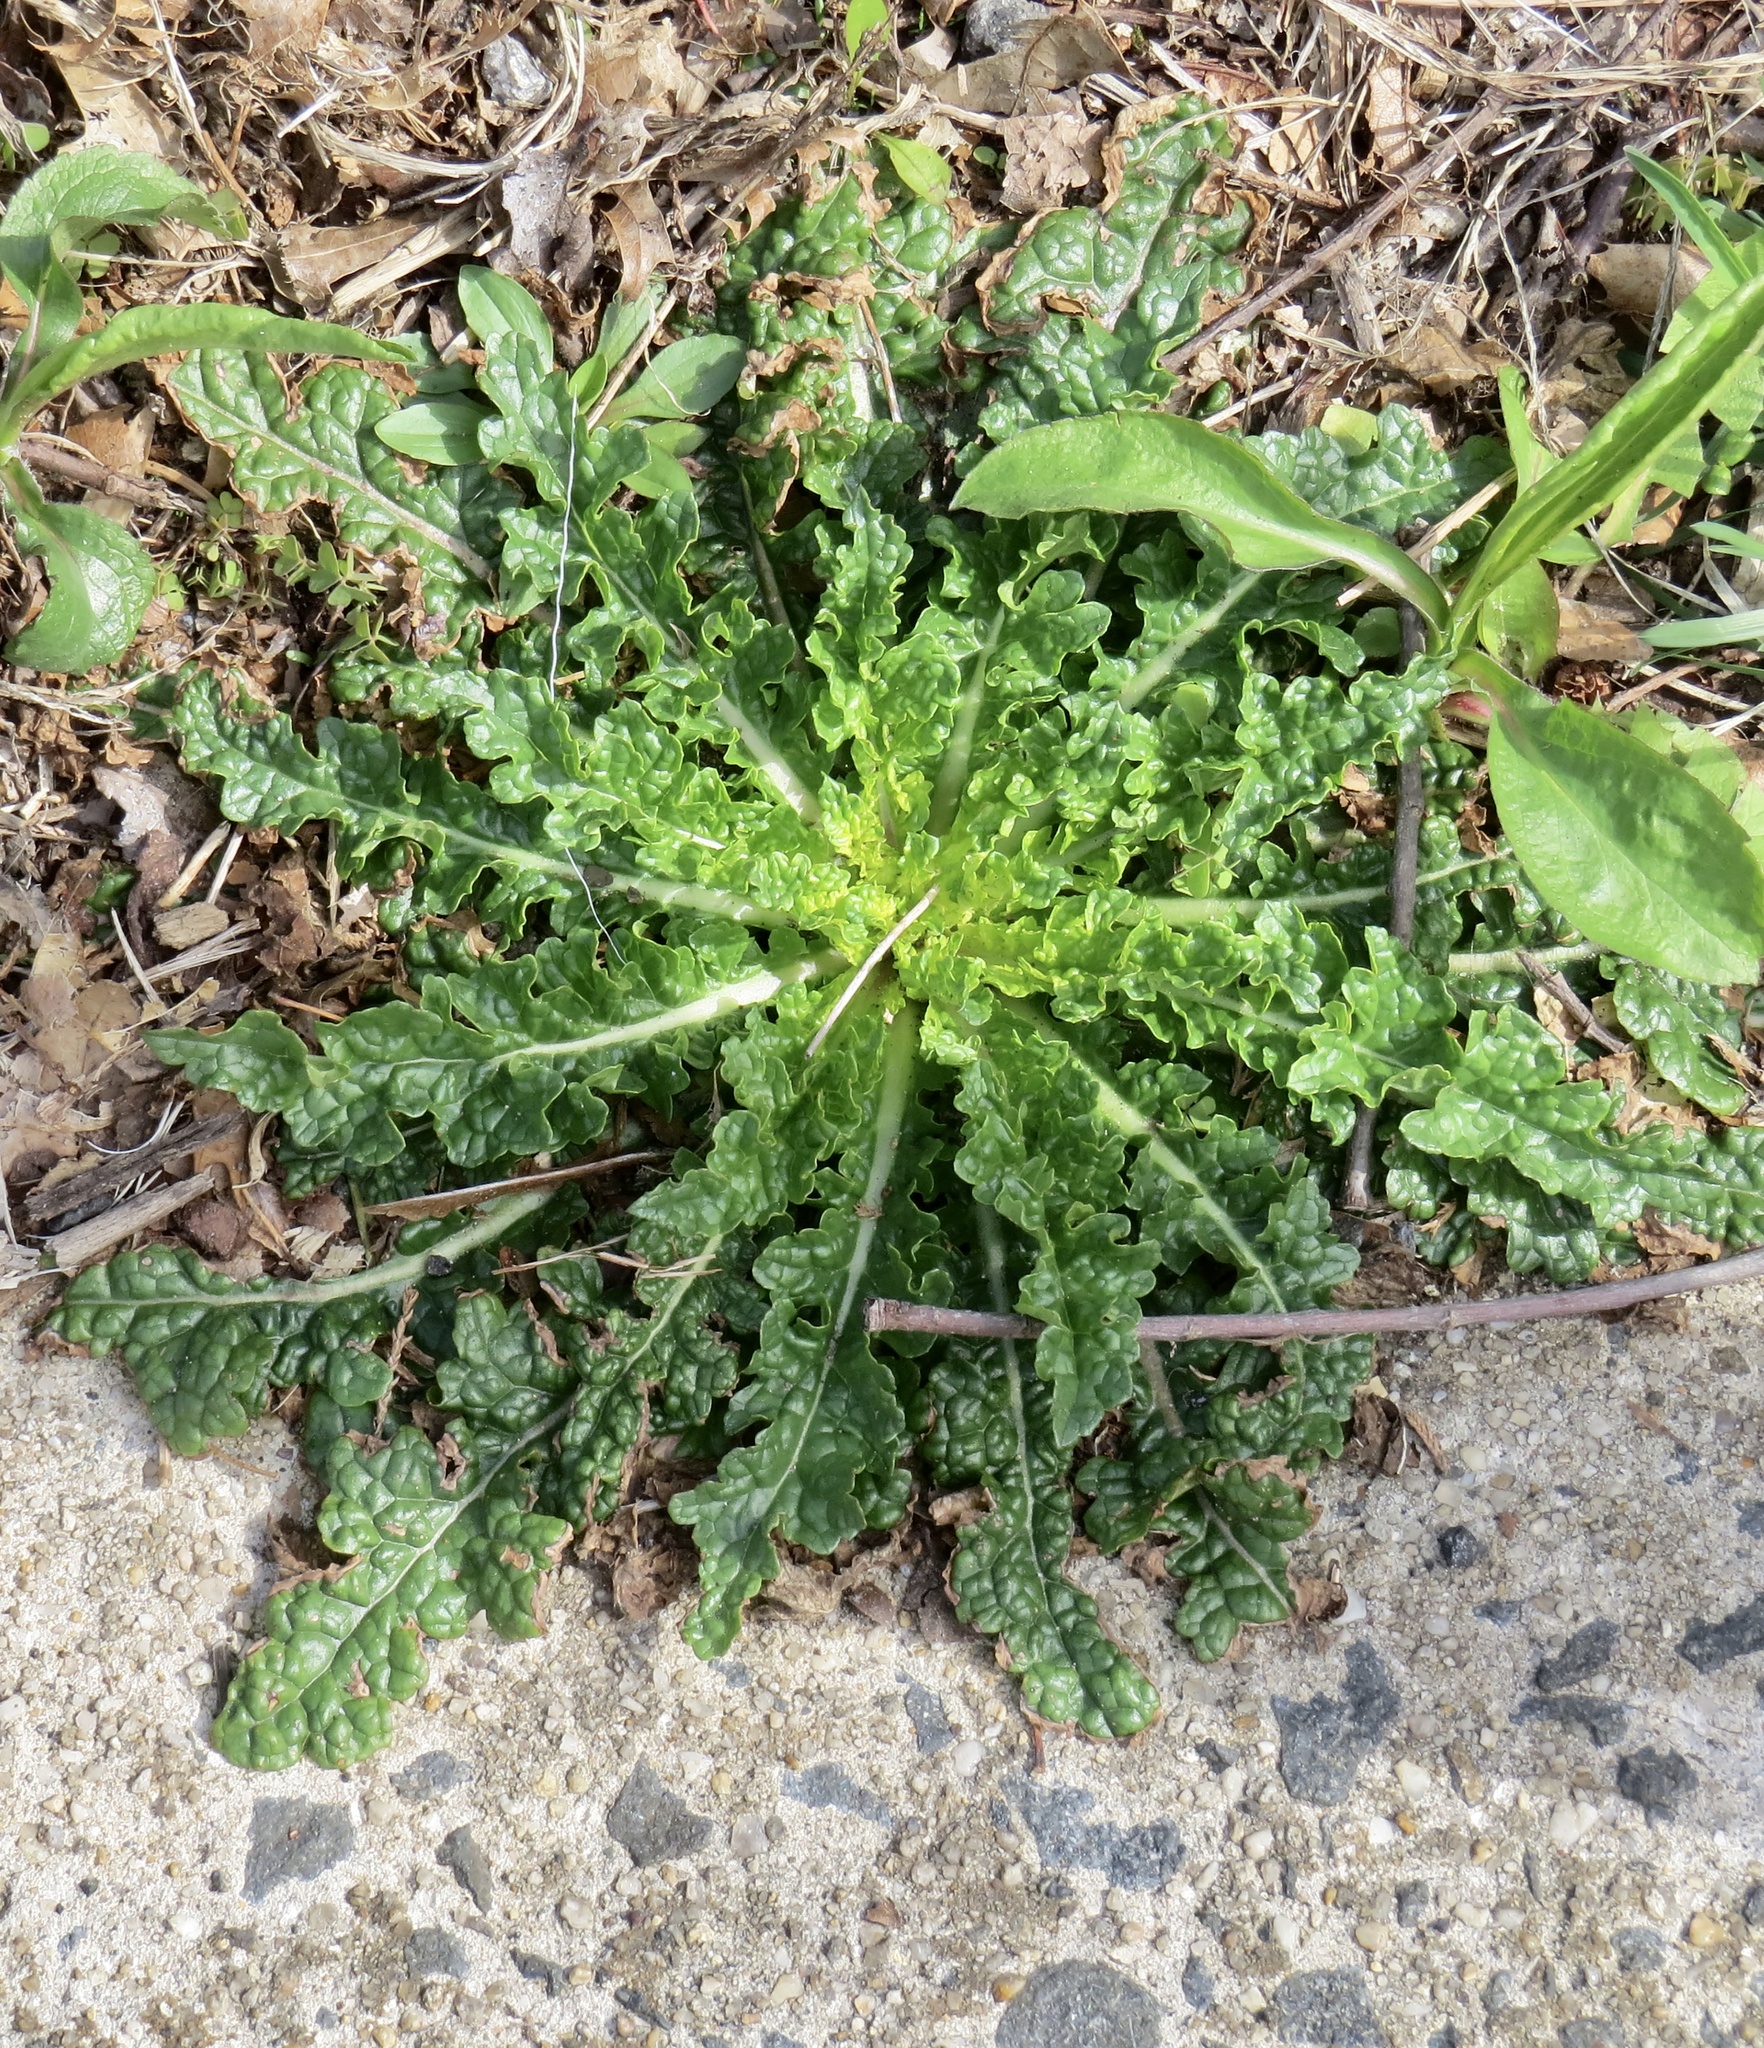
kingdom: Plantae
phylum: Tracheophyta
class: Magnoliopsida
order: Lamiales
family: Scrophulariaceae
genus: Verbascum
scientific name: Verbascum blattaria
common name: Moth mullein
